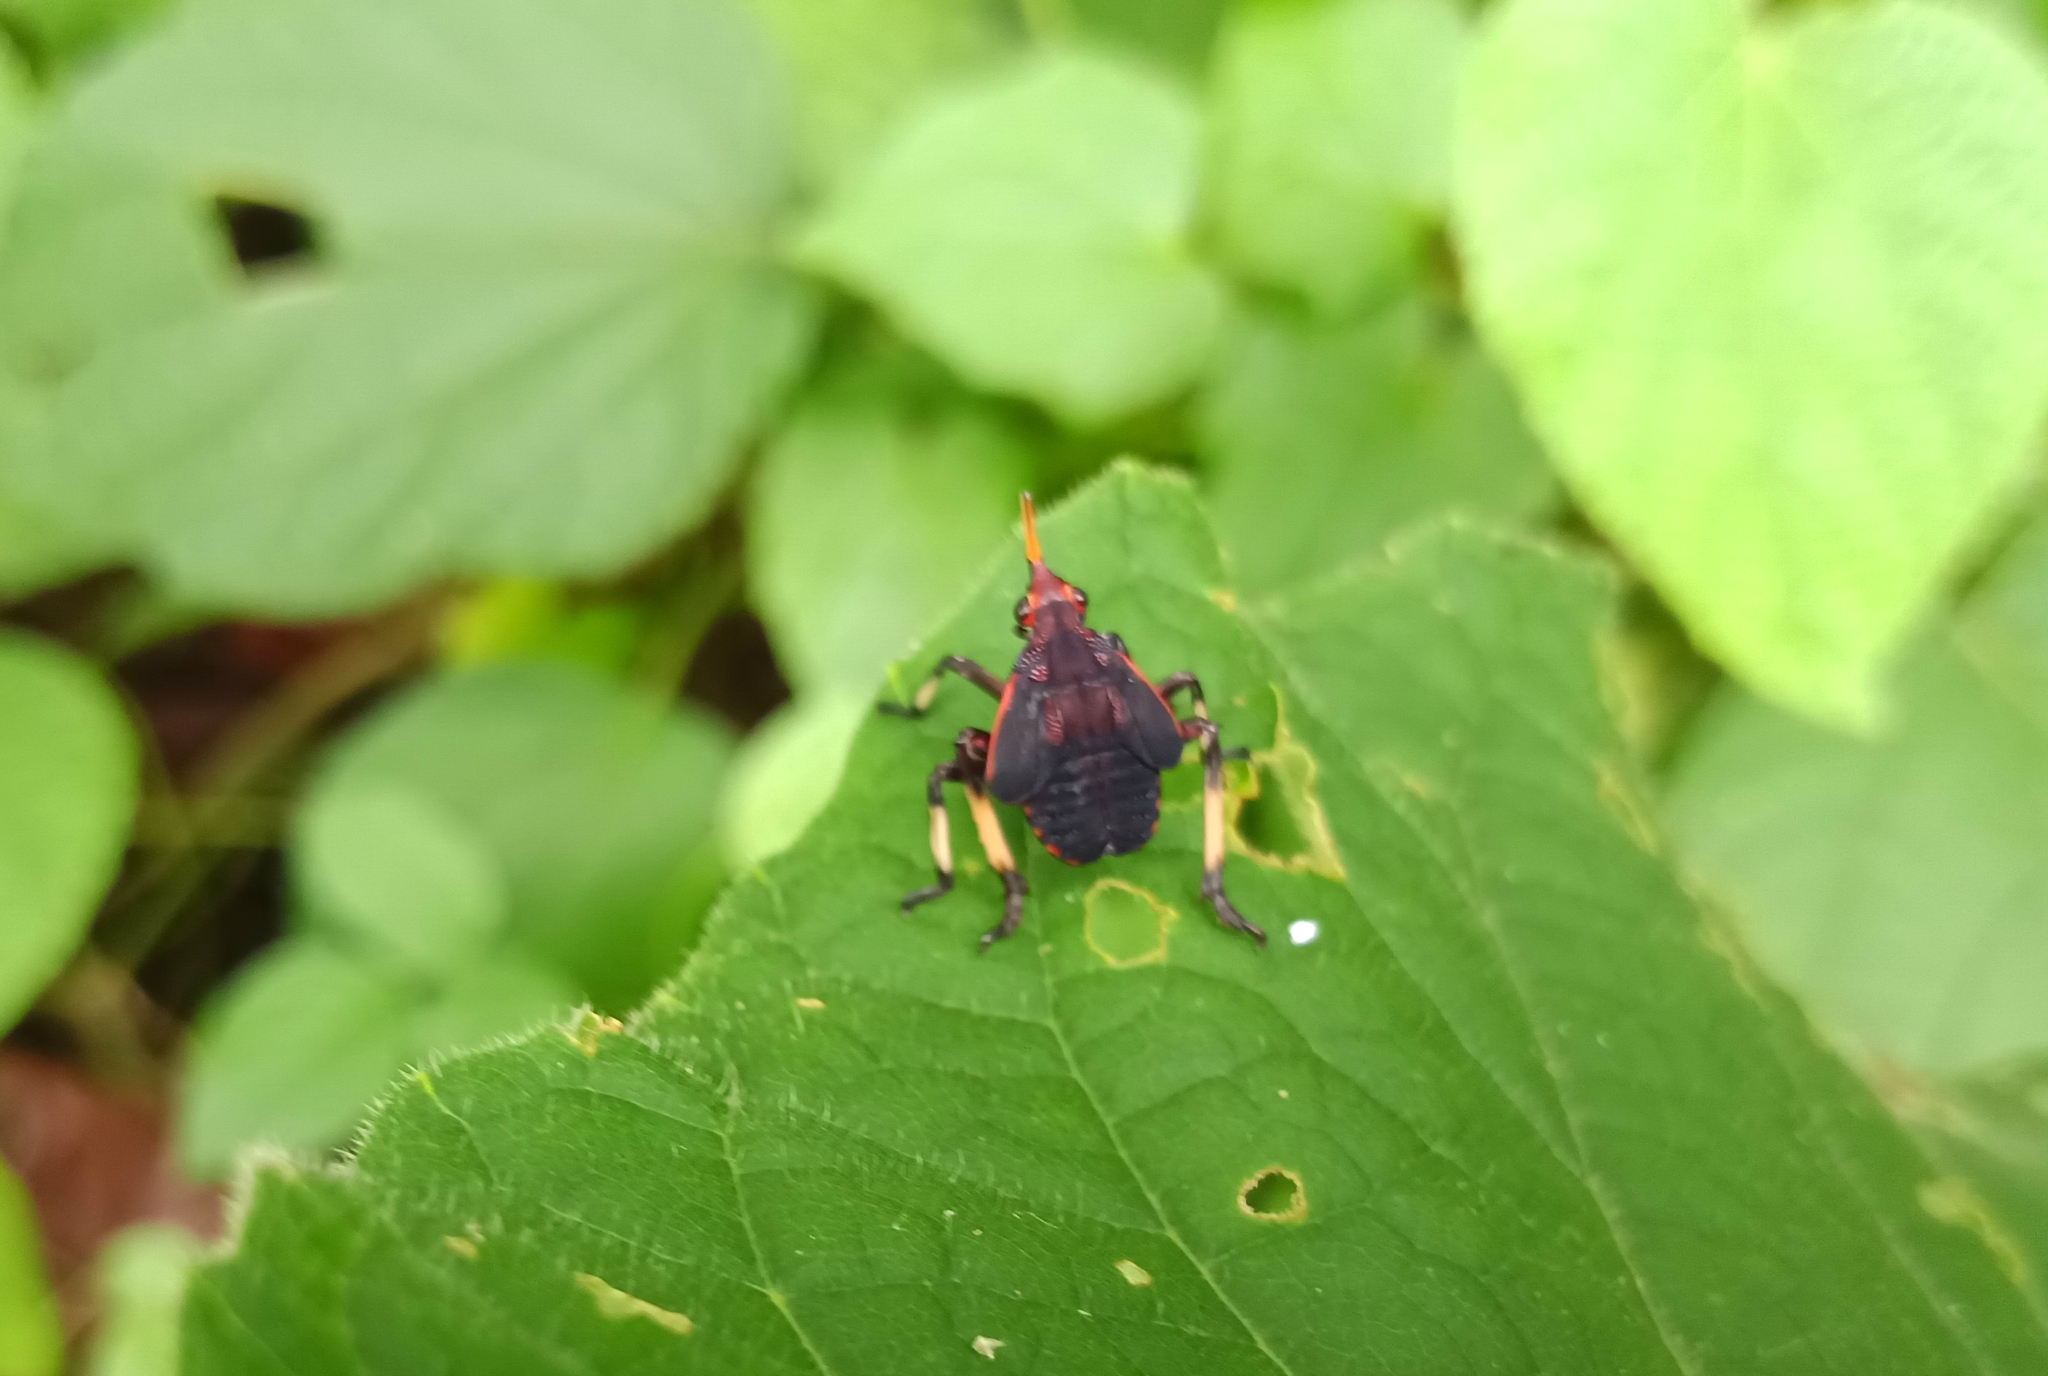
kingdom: Animalia
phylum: Arthropoda
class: Insecta
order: Hemiptera
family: Fulgoridae
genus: Kalidasa
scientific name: Kalidasa lanata
